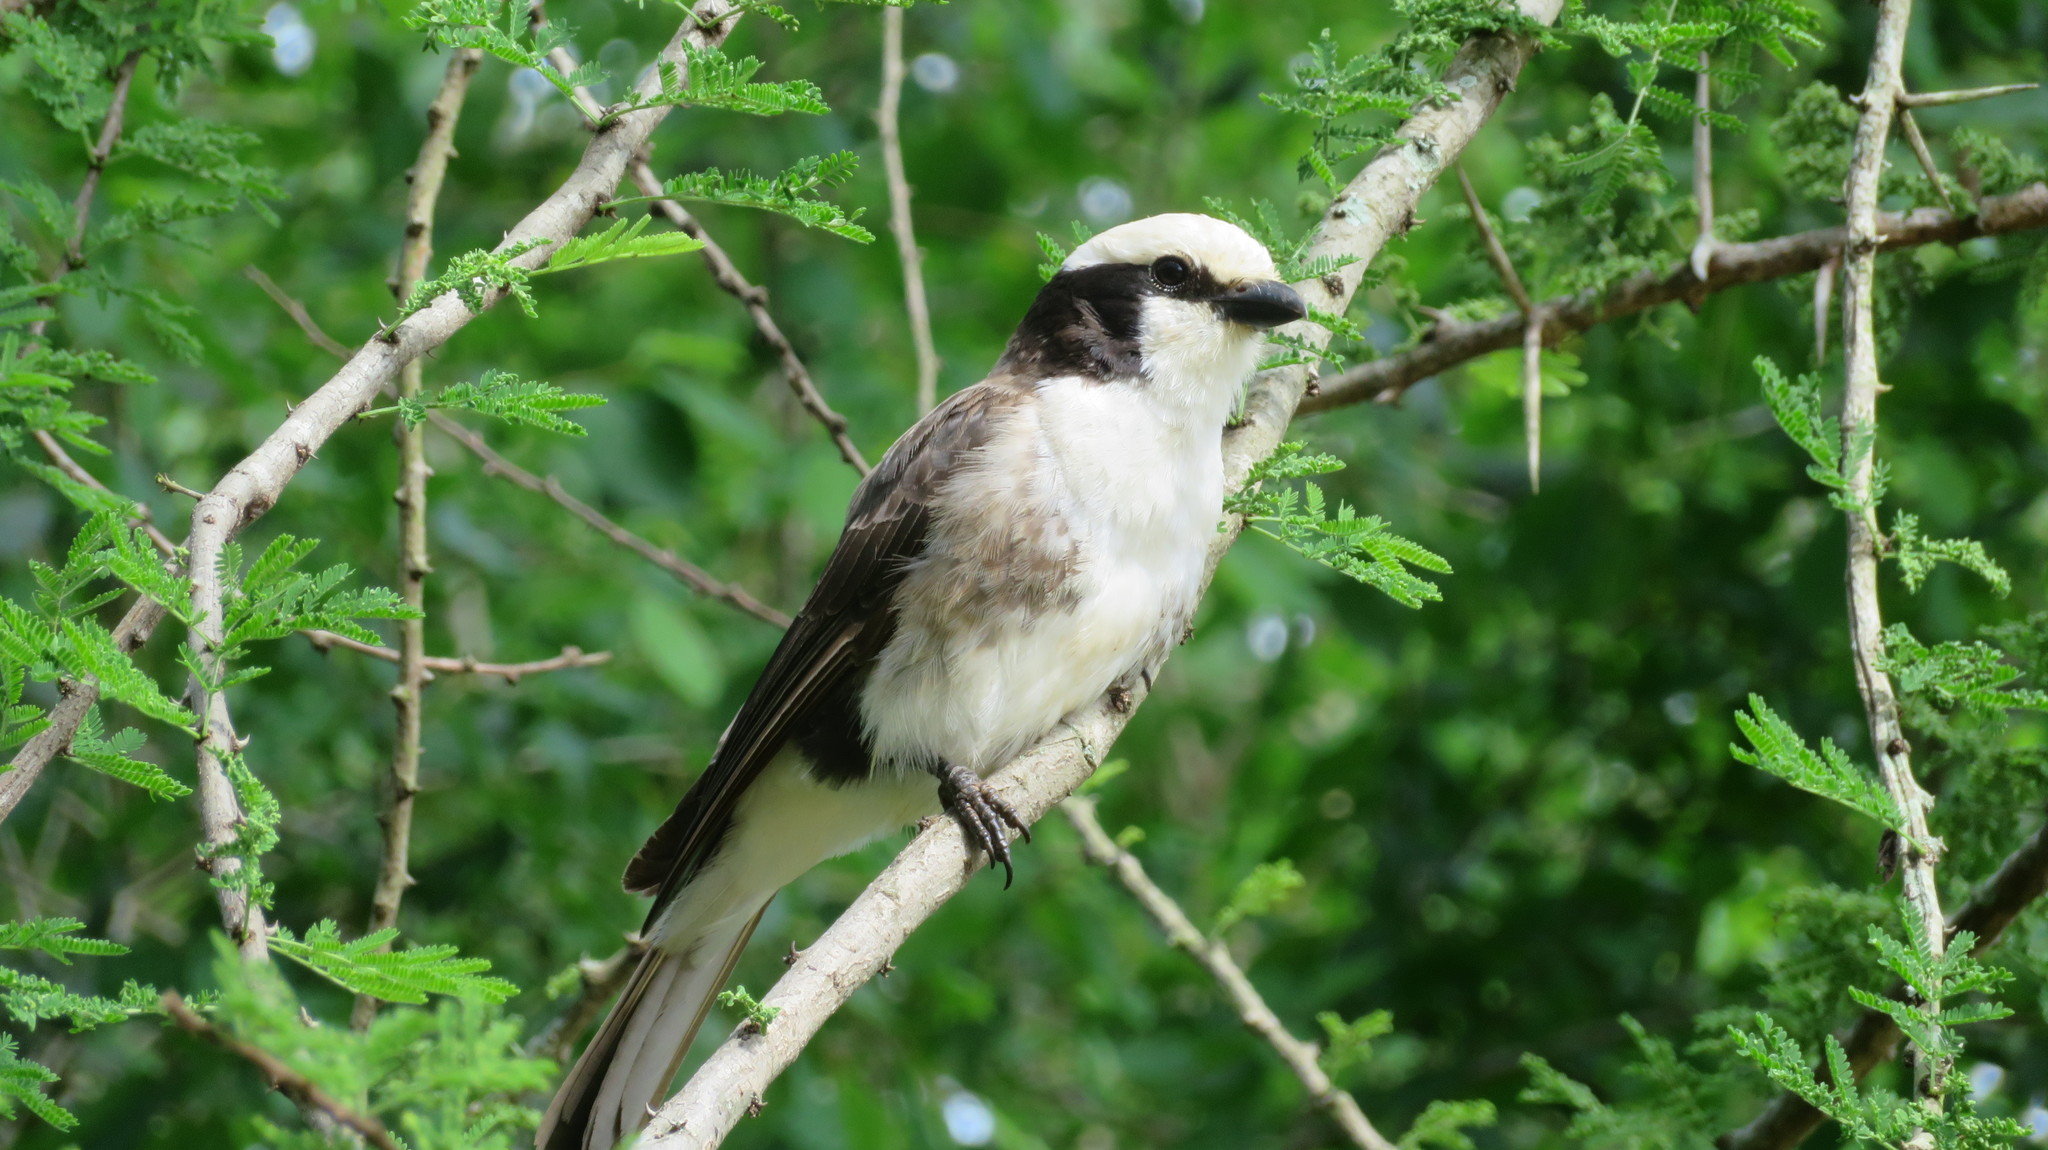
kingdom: Animalia
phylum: Chordata
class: Aves
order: Passeriformes
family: Laniidae
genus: Eurocephalus
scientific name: Eurocephalus ruppelli
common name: Northern white-crowned shrike
